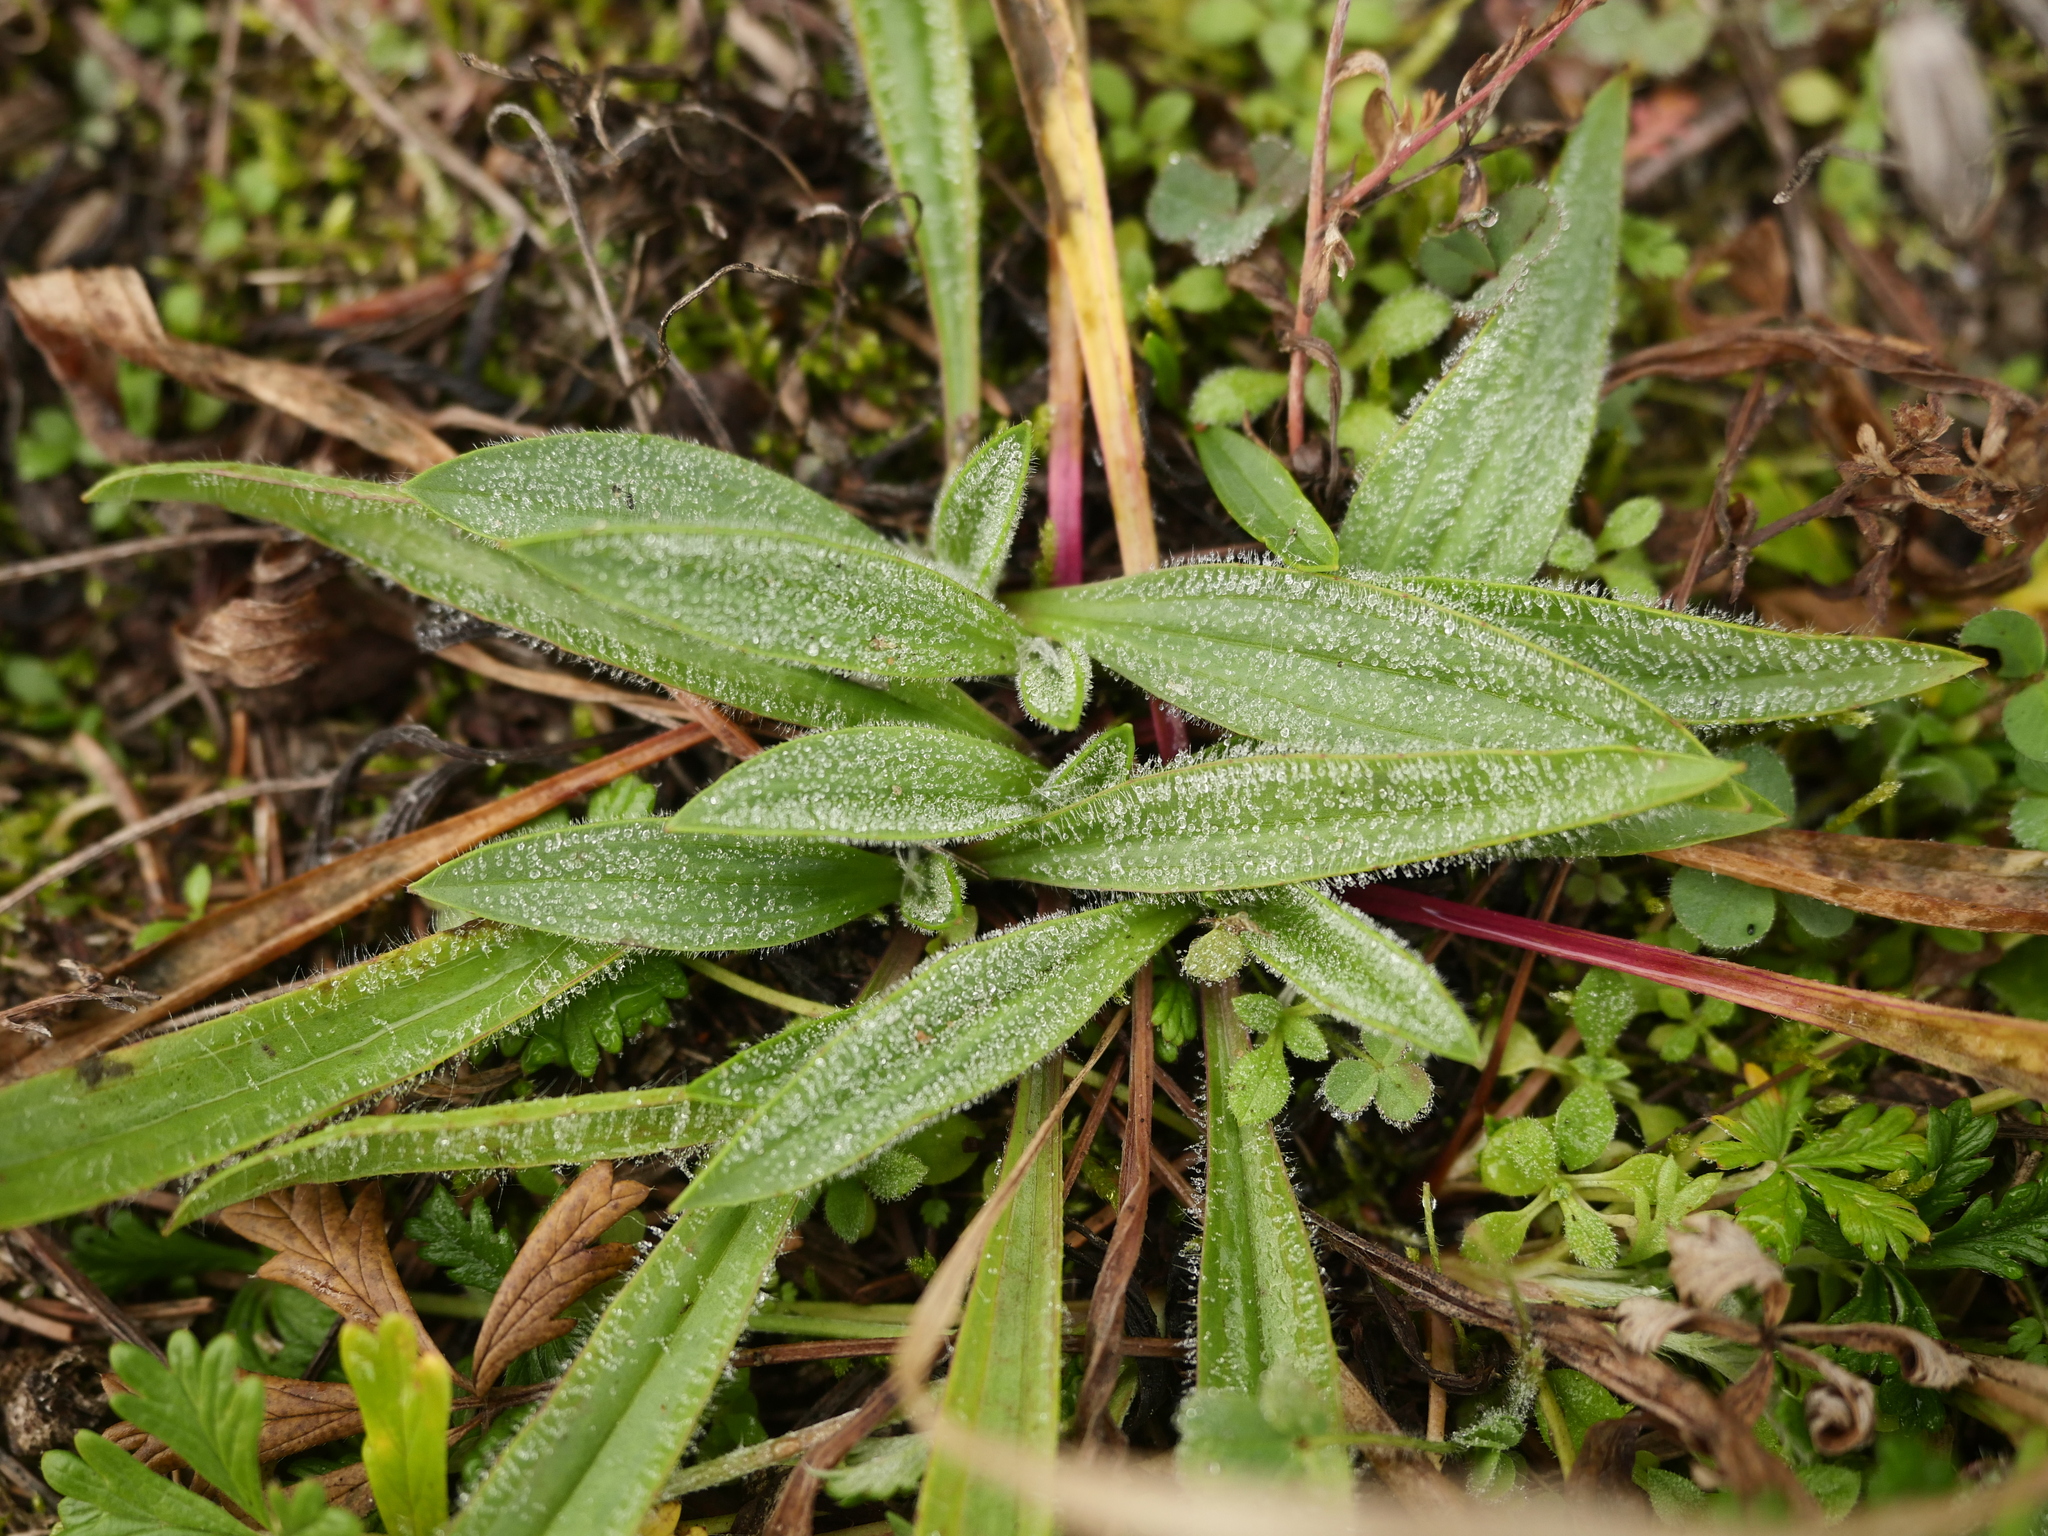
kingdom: Plantae
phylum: Tracheophyta
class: Magnoliopsida
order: Lamiales
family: Plantaginaceae
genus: Plantago
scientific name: Plantago lanceolata
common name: Ribwort plantain
